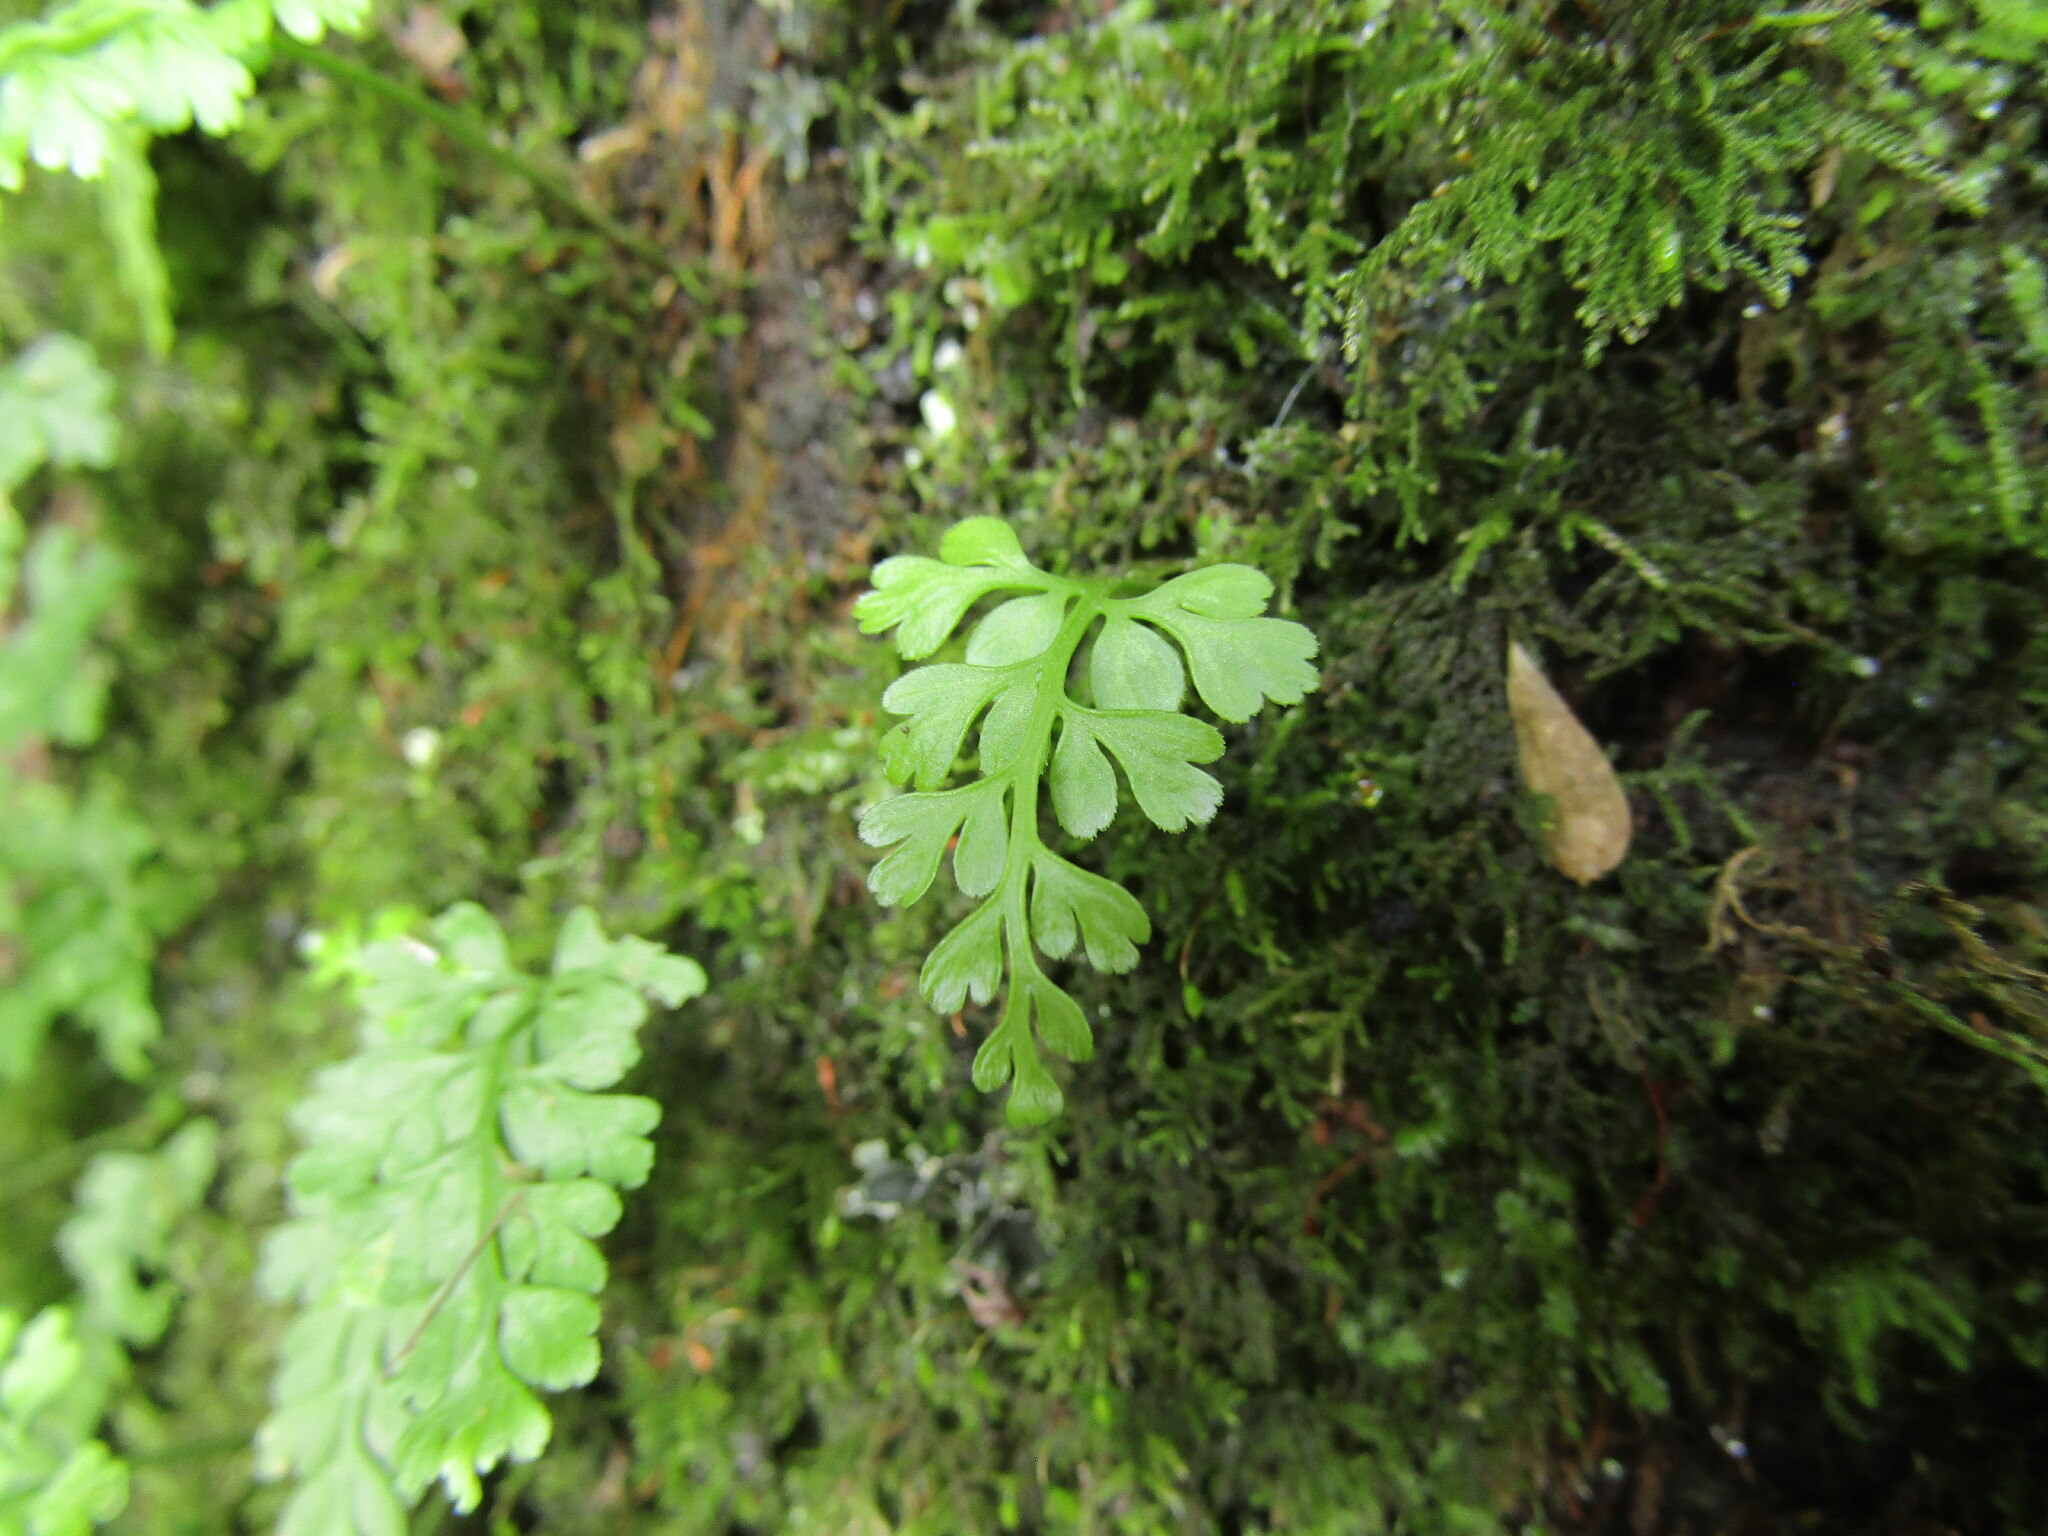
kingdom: Plantae
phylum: Tracheophyta
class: Polypodiopsida
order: Polypodiales
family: Aspleniaceae
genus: Asplenium
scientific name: Asplenium dareoides
